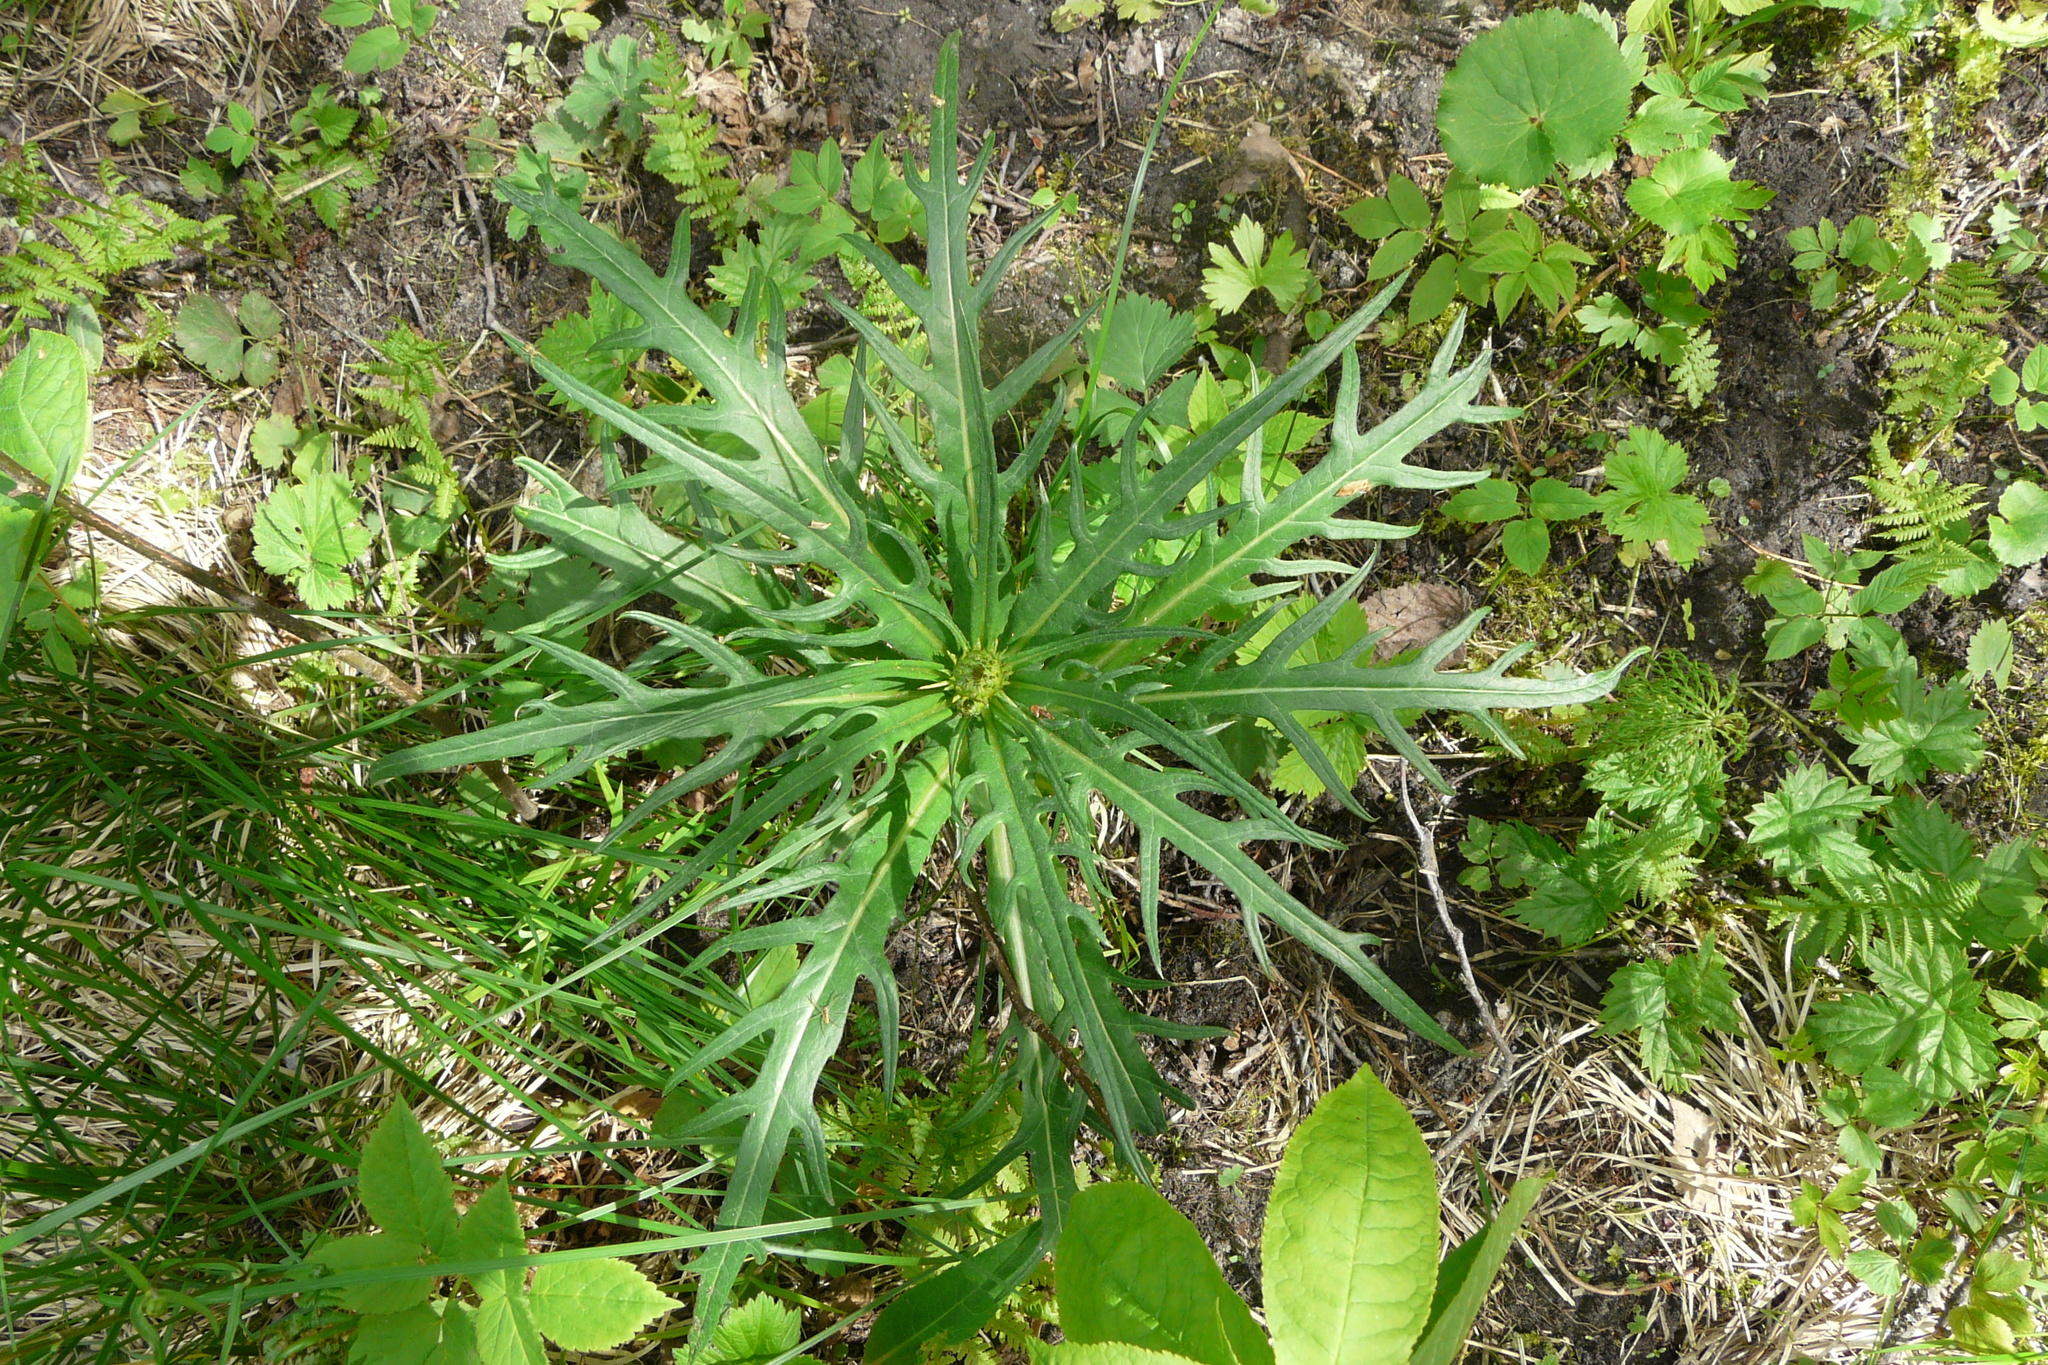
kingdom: Plantae
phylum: Tracheophyta
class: Magnoliopsida
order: Asterales
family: Asteraceae
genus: Cirsium
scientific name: Cirsium heterophyllum
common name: Melancholy thistle
